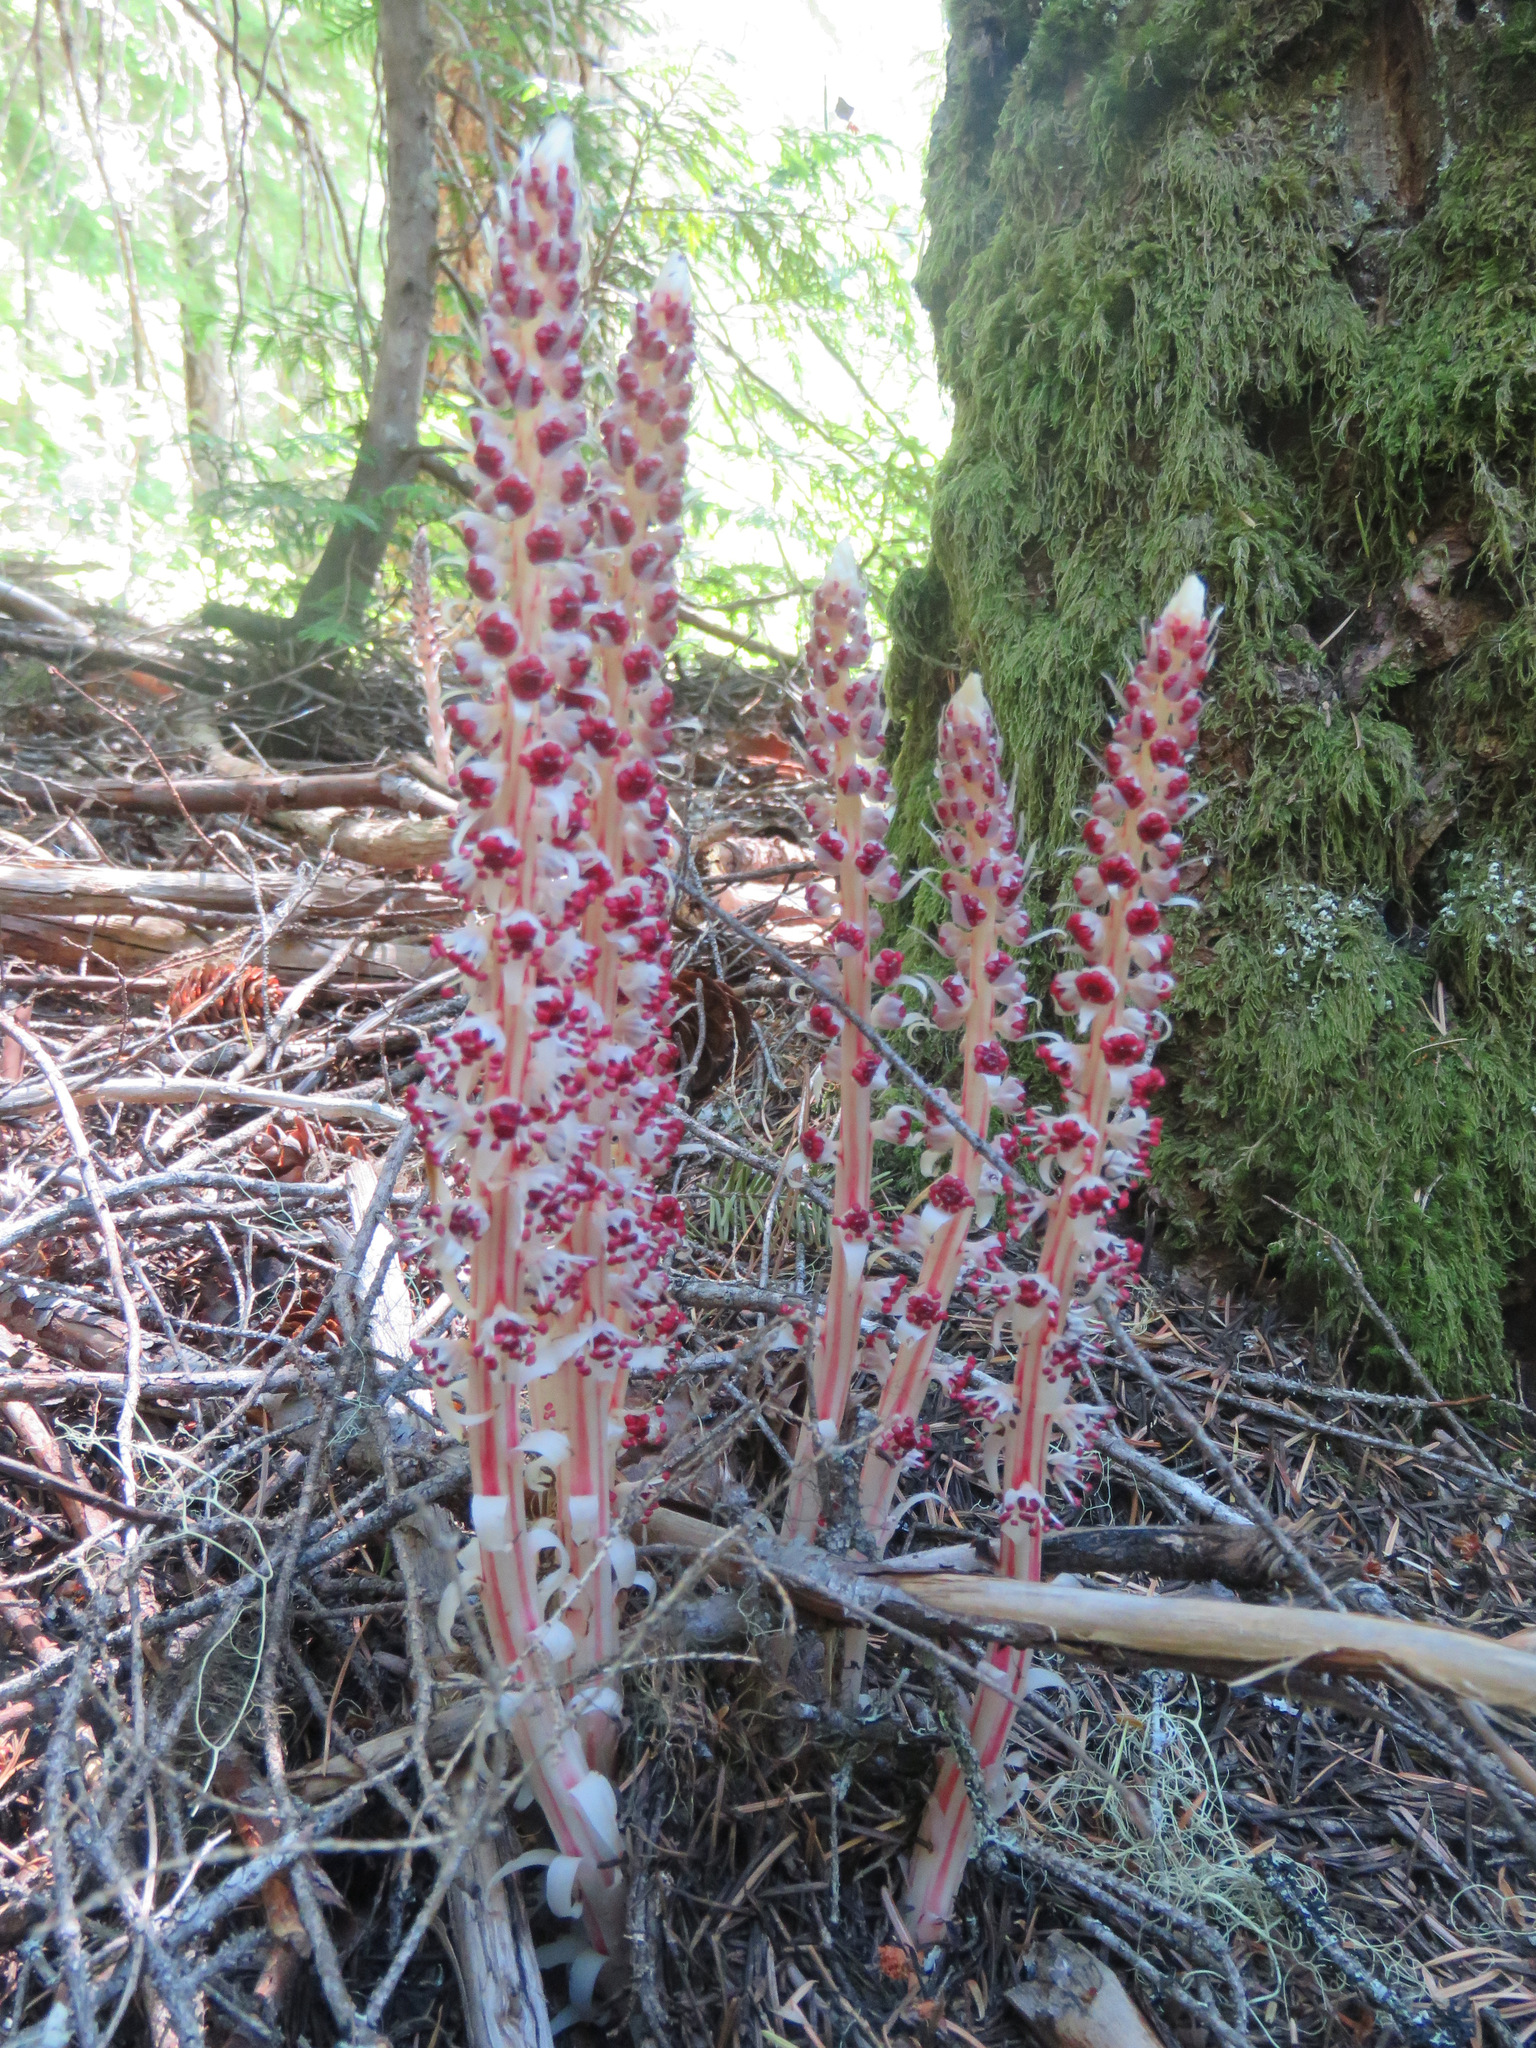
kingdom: Plantae
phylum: Tracheophyta
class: Magnoliopsida
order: Ericales
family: Ericaceae
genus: Allotropa
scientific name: Allotropa virgata
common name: Candy-striped allotropa
